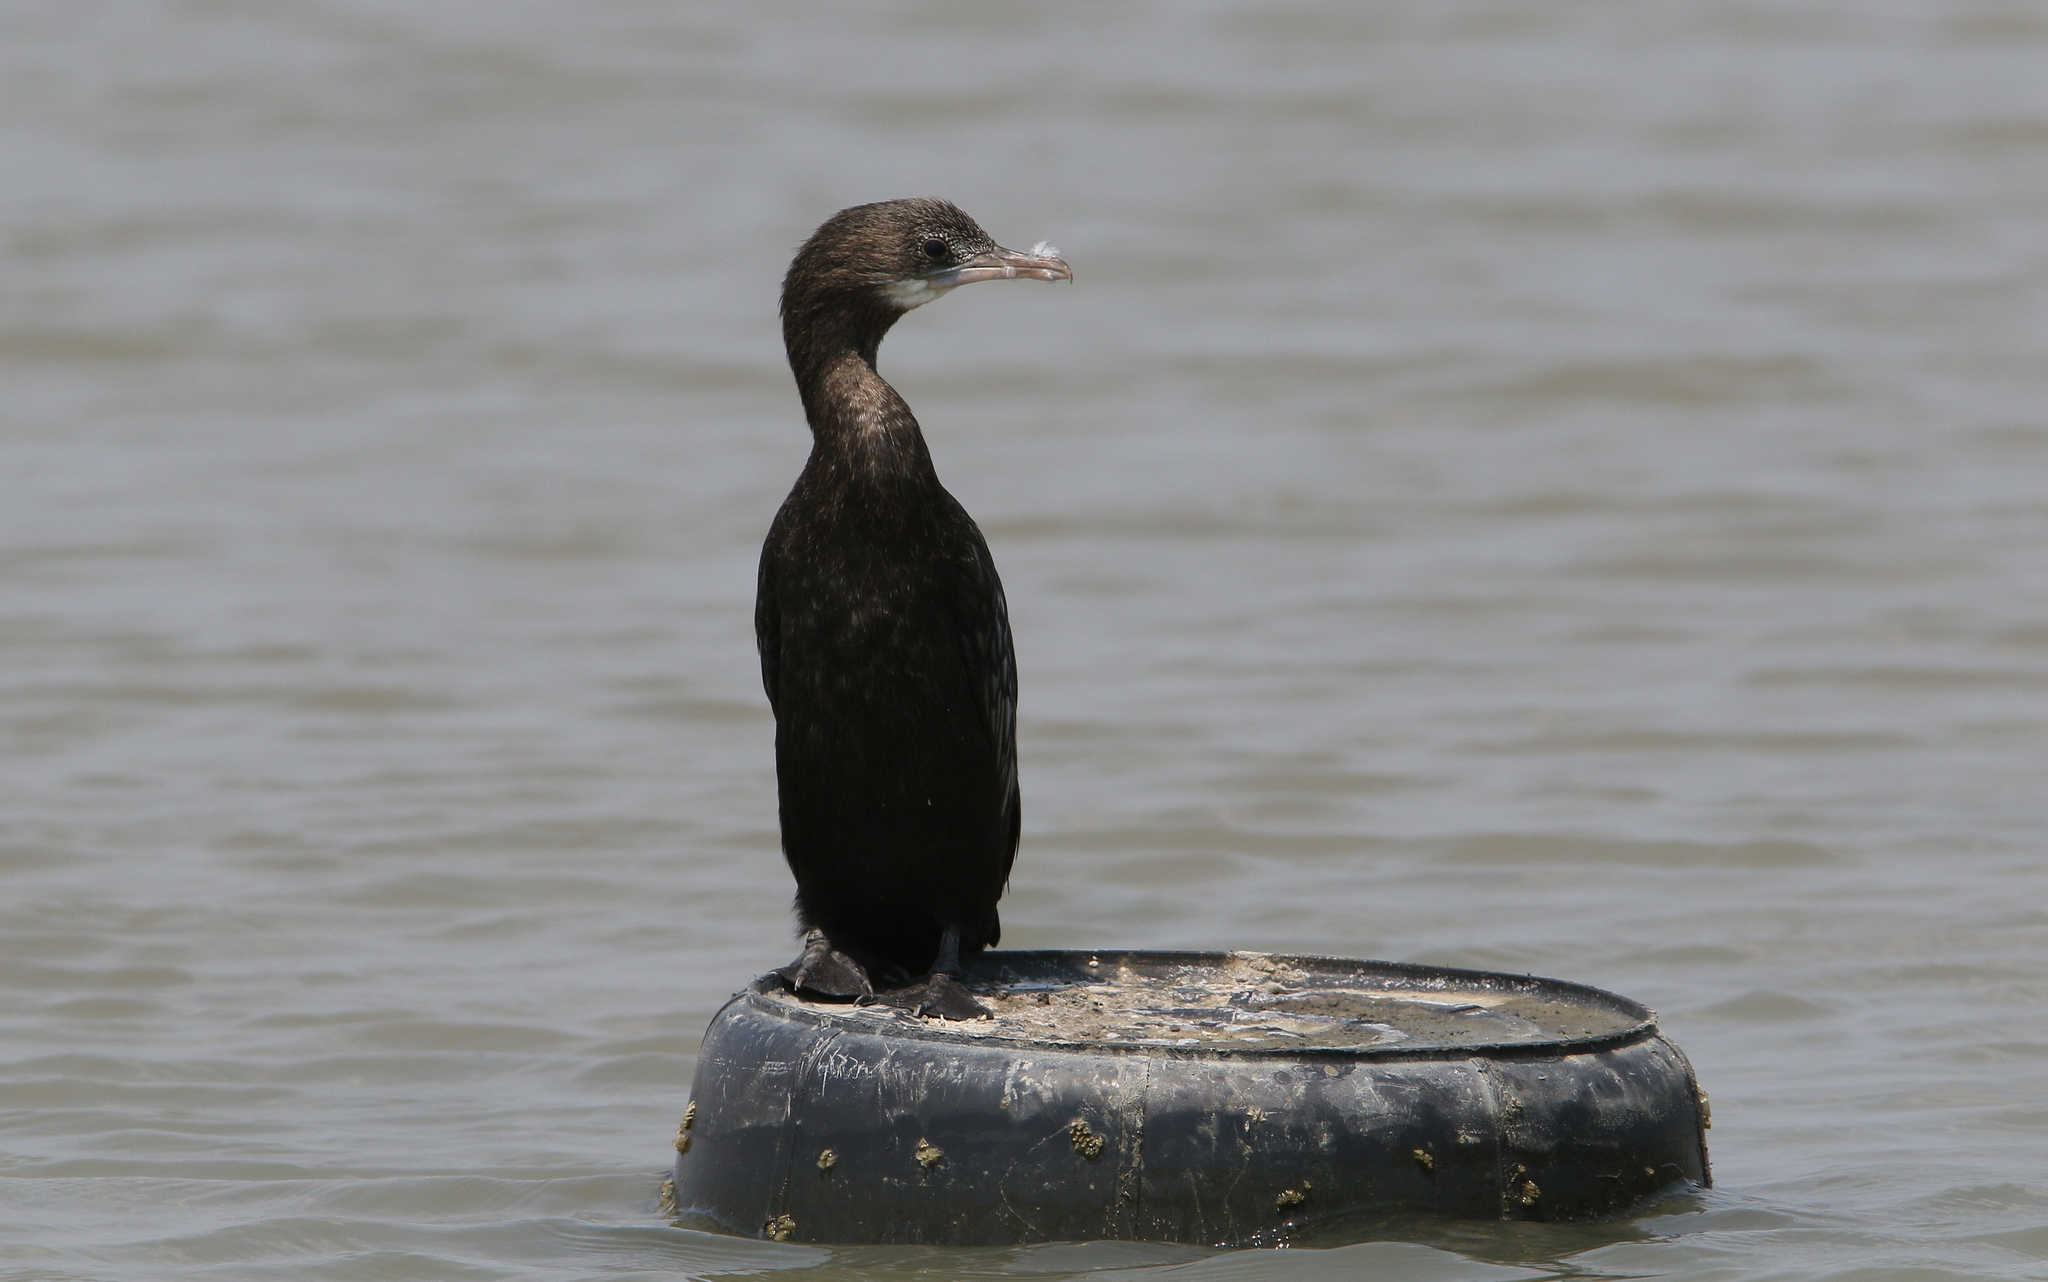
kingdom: Animalia
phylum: Chordata
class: Aves
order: Suliformes
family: Phalacrocoracidae
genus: Microcarbo
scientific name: Microcarbo niger
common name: Little cormorant
